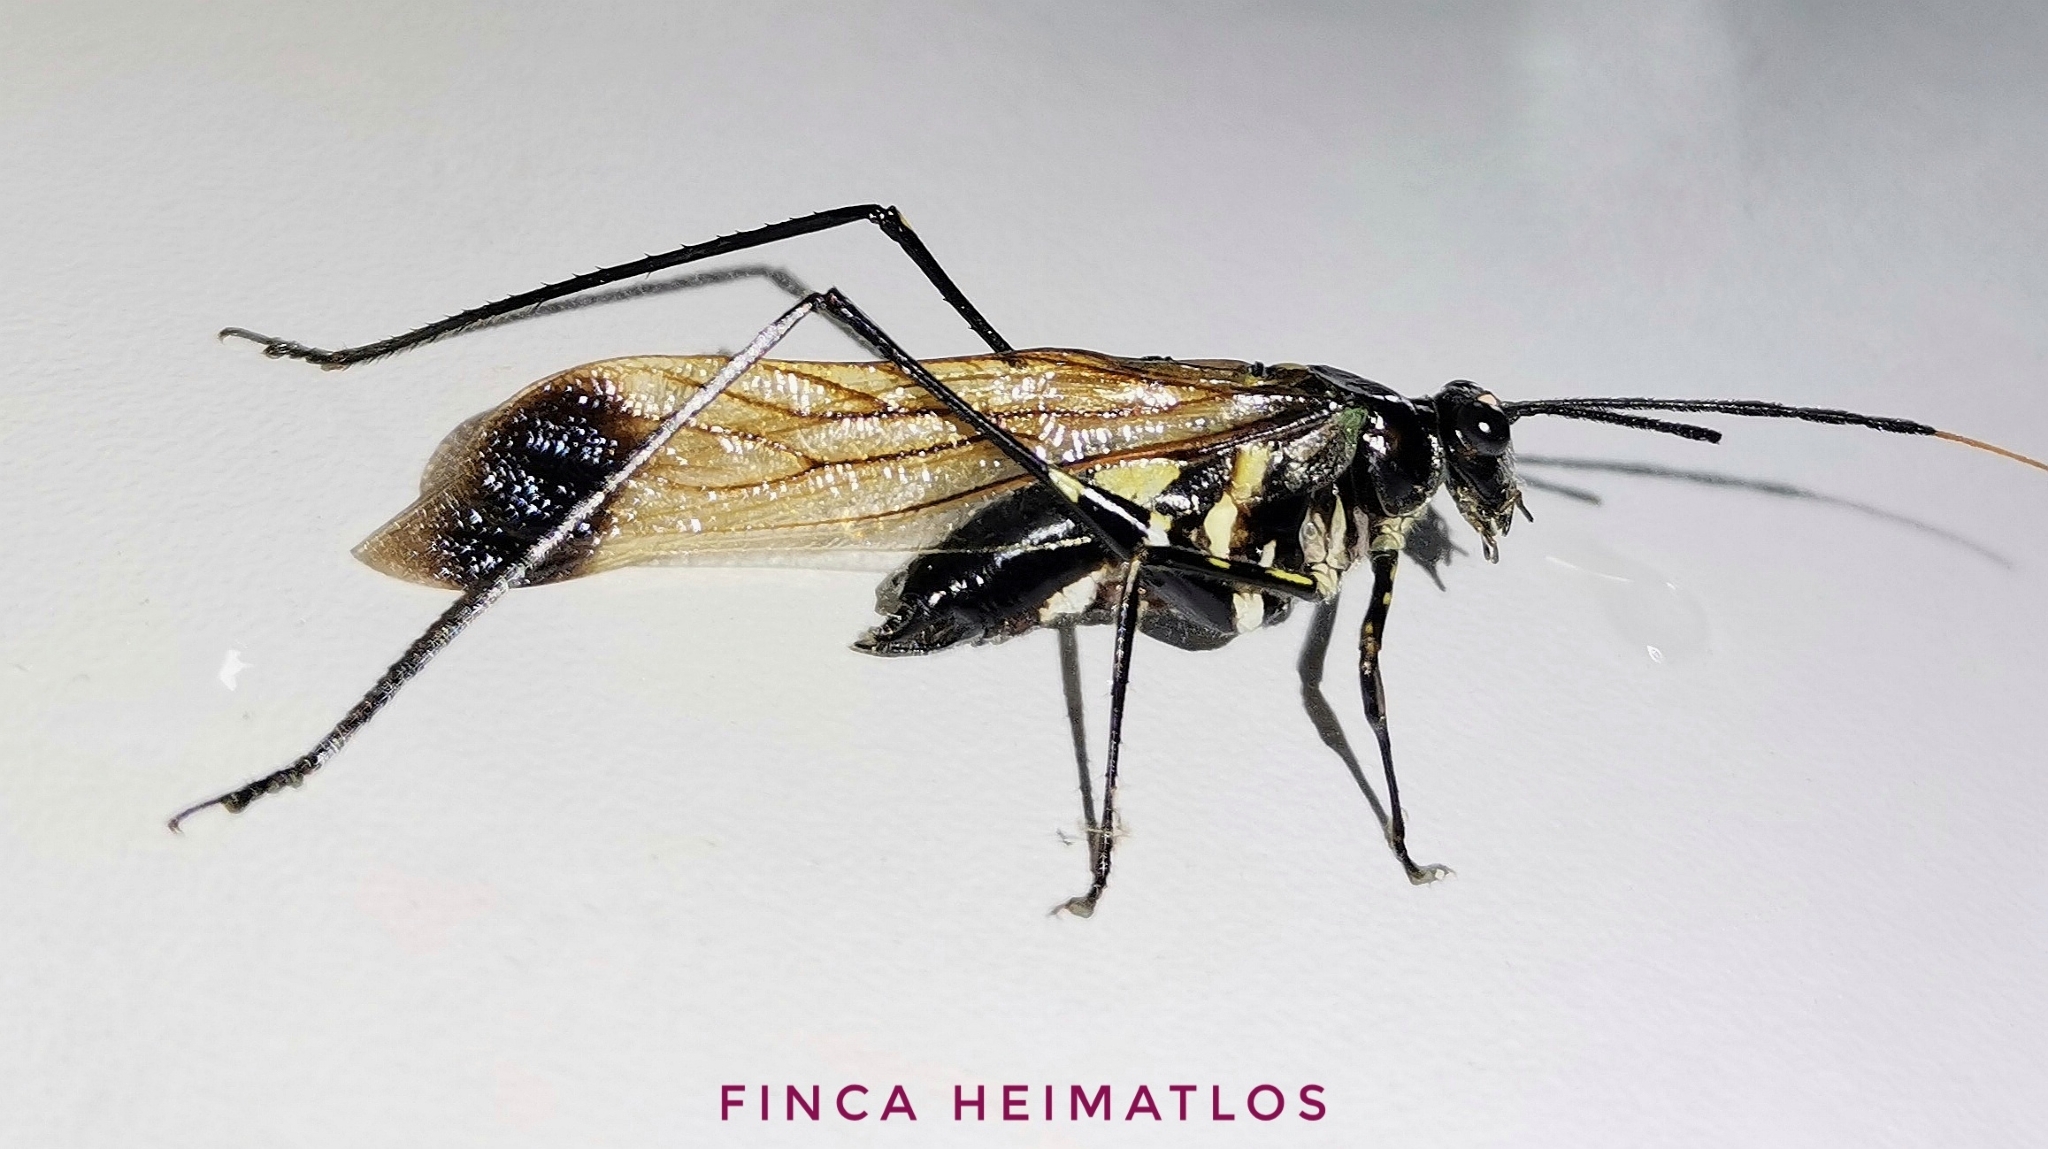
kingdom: Animalia
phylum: Arthropoda
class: Insecta
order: Orthoptera
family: Tettigoniidae
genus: Aganacris
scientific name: Aganacris nitida
